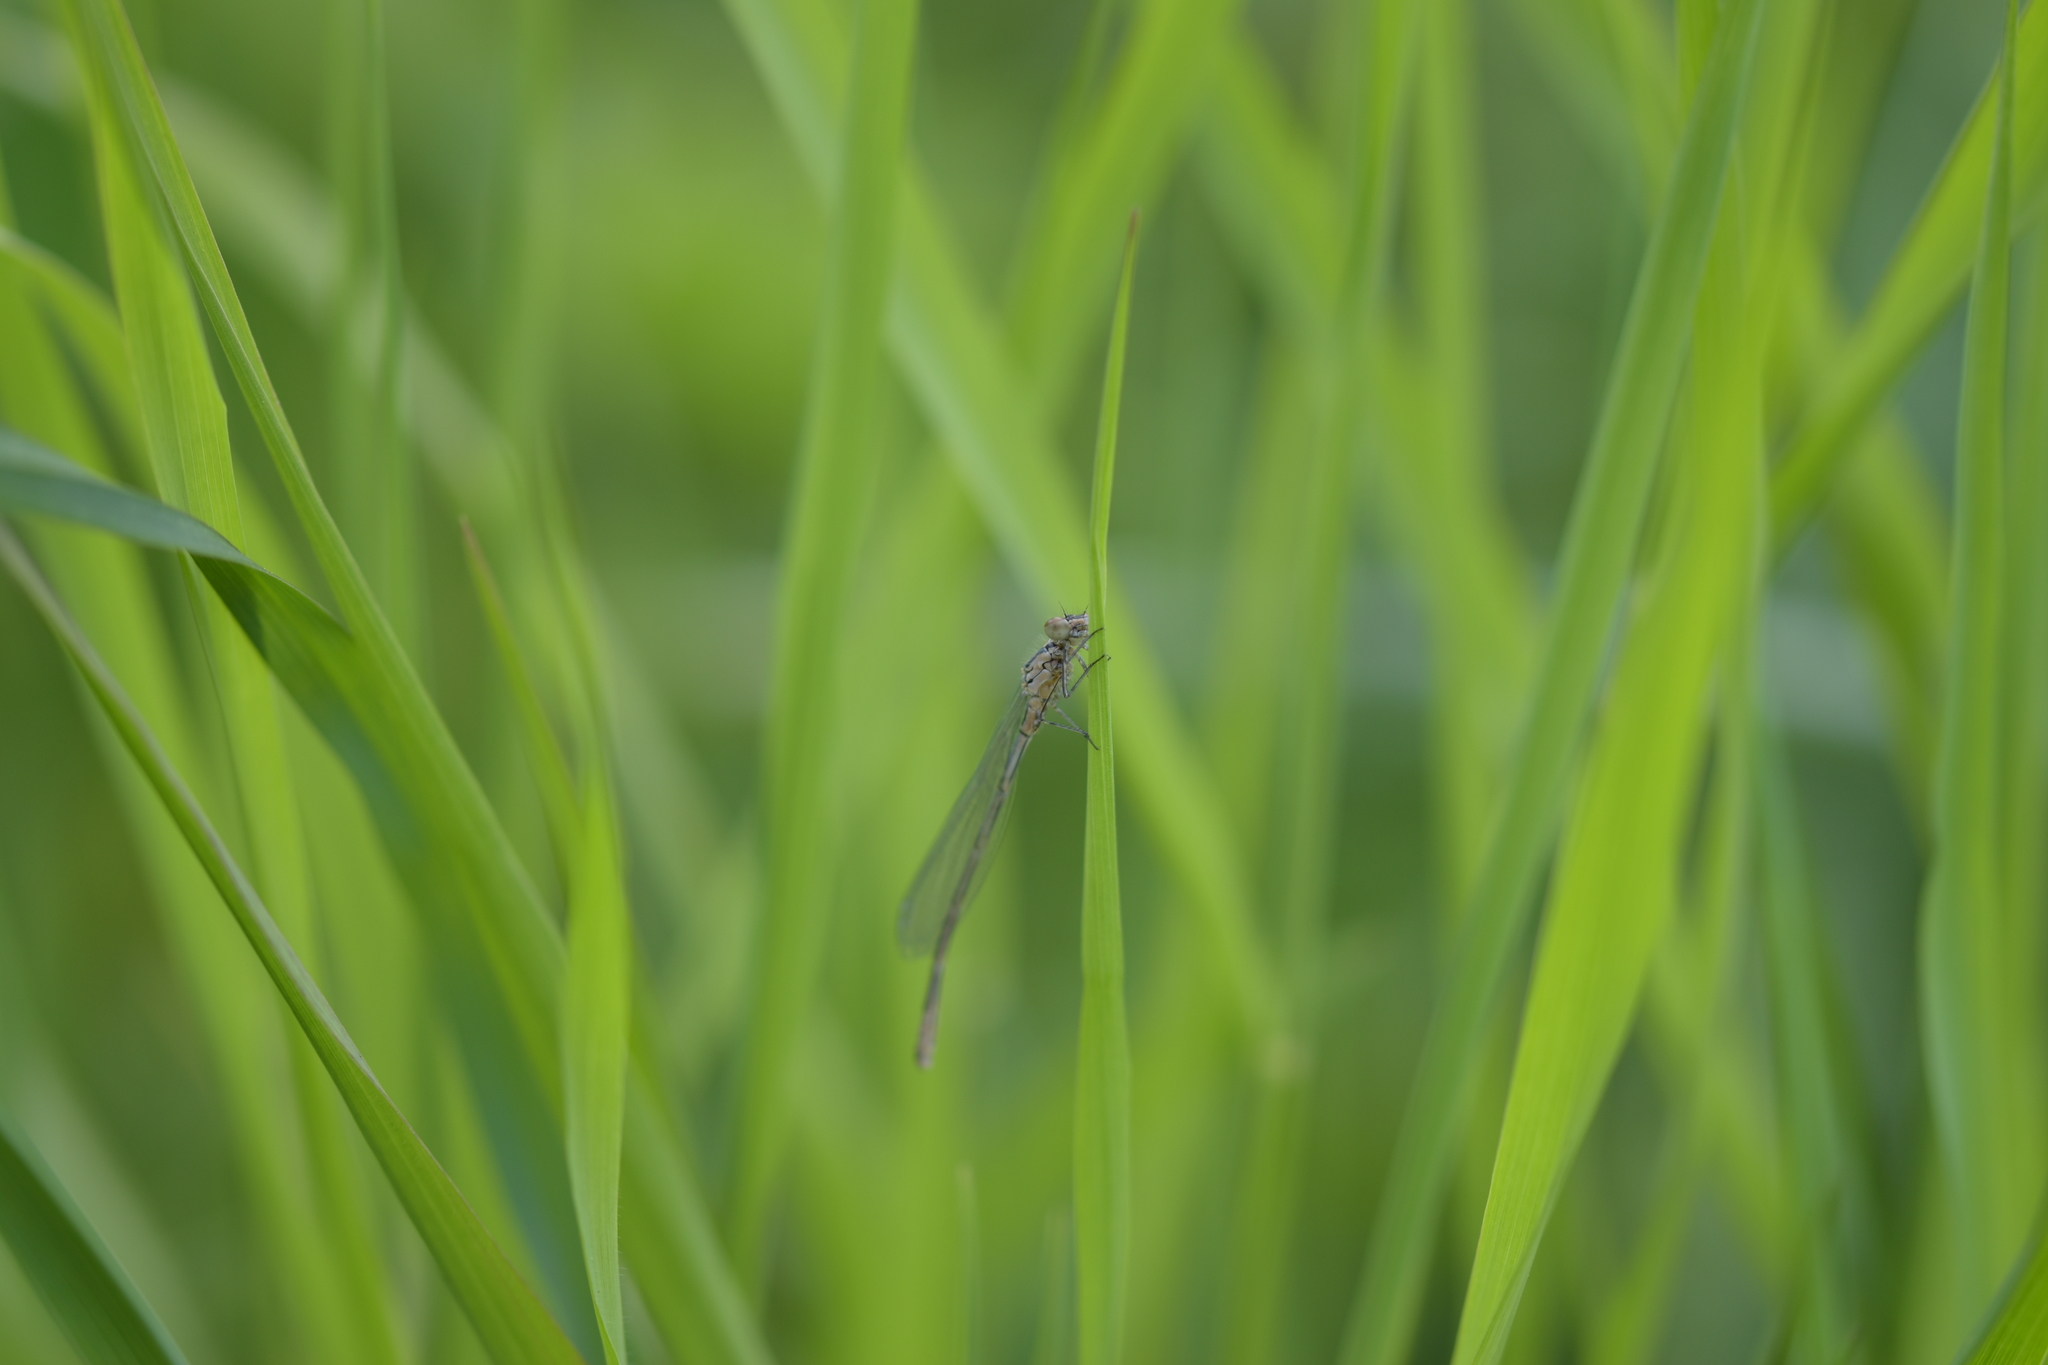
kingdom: Animalia
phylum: Arthropoda
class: Insecta
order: Odonata
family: Coenagrionidae
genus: Coenagrion
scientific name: Coenagrion puella
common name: Azure damselfly
